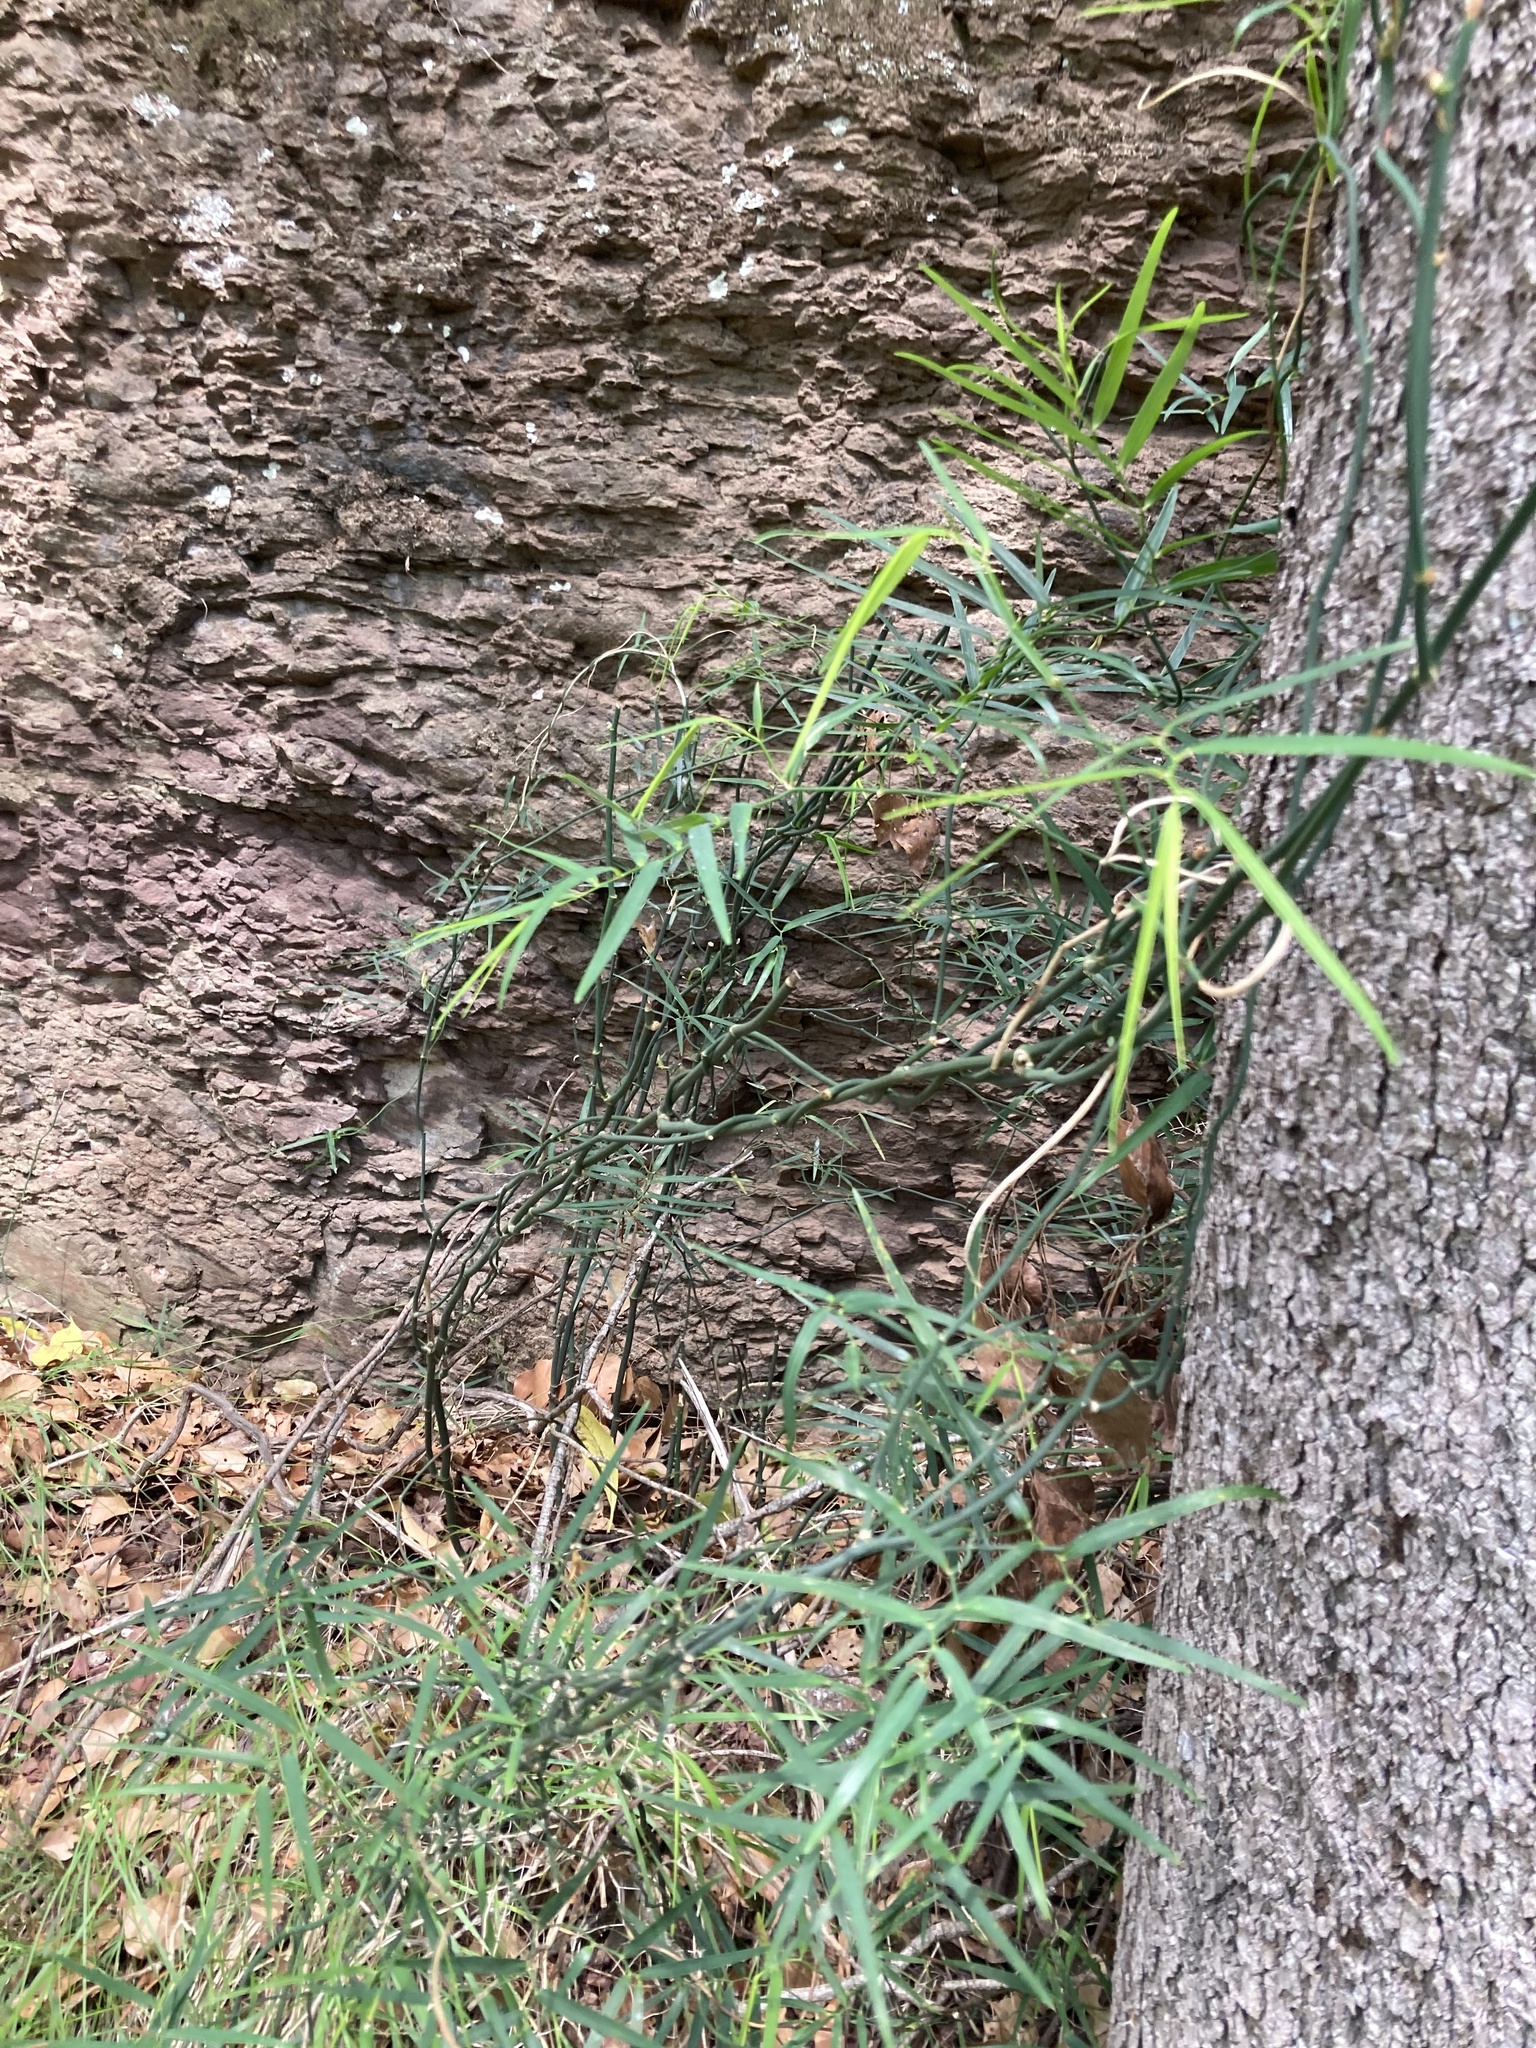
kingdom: Plantae
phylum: Tracheophyta
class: Liliopsida
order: Asparagales
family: Asphodelaceae
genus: Geitonoplesium
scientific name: Geitonoplesium cymosum
